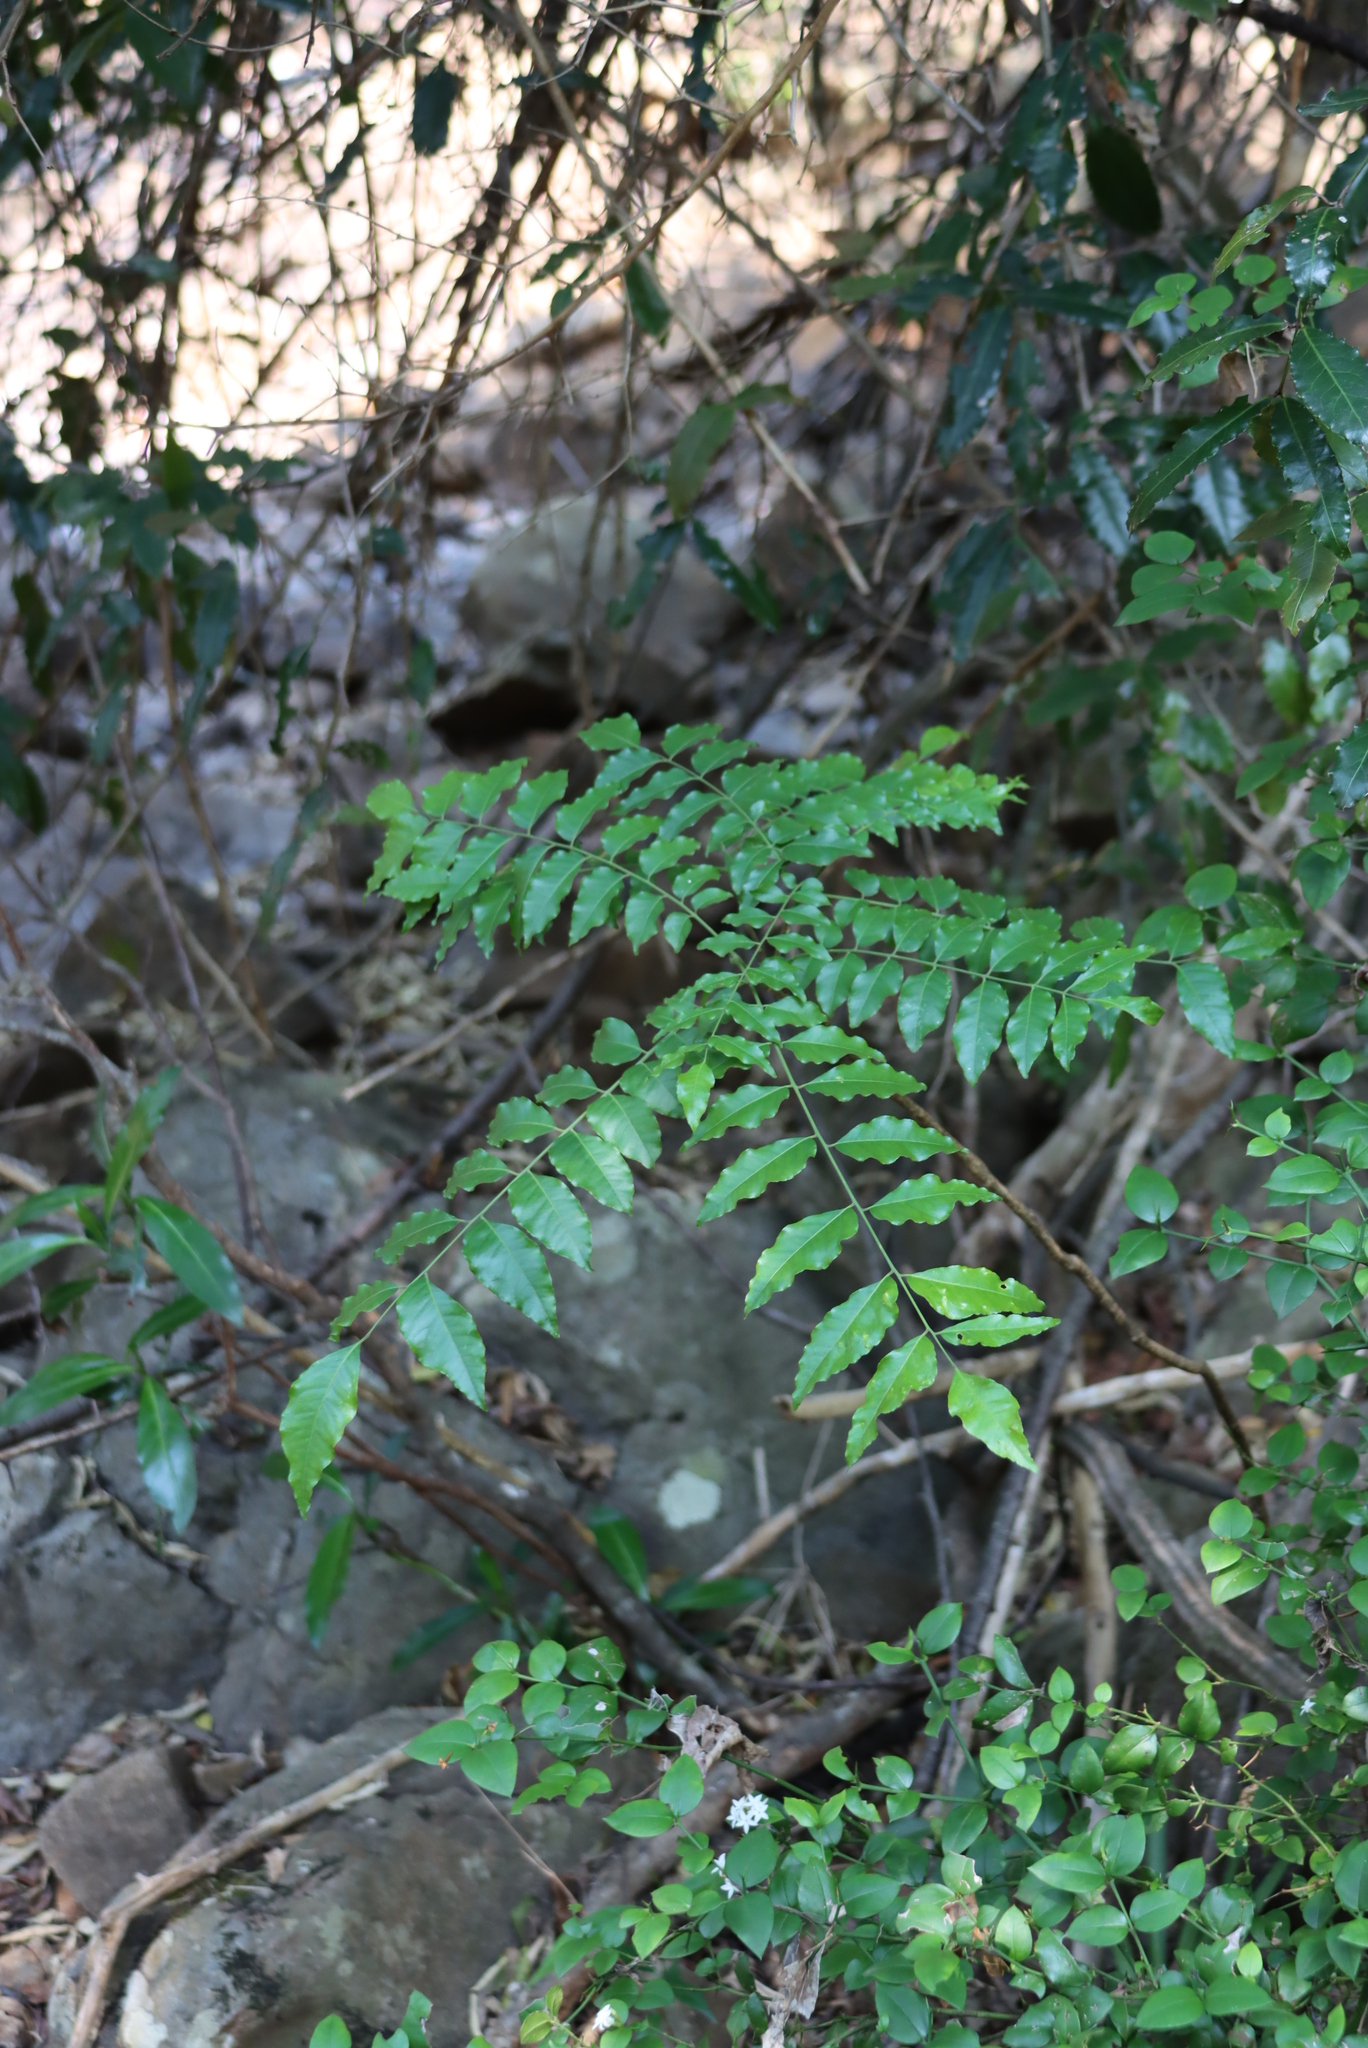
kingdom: Plantae
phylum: Tracheophyta
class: Magnoliopsida
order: Sapindales
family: Rutaceae
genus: Clausena
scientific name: Clausena anisata
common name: Horsewood
